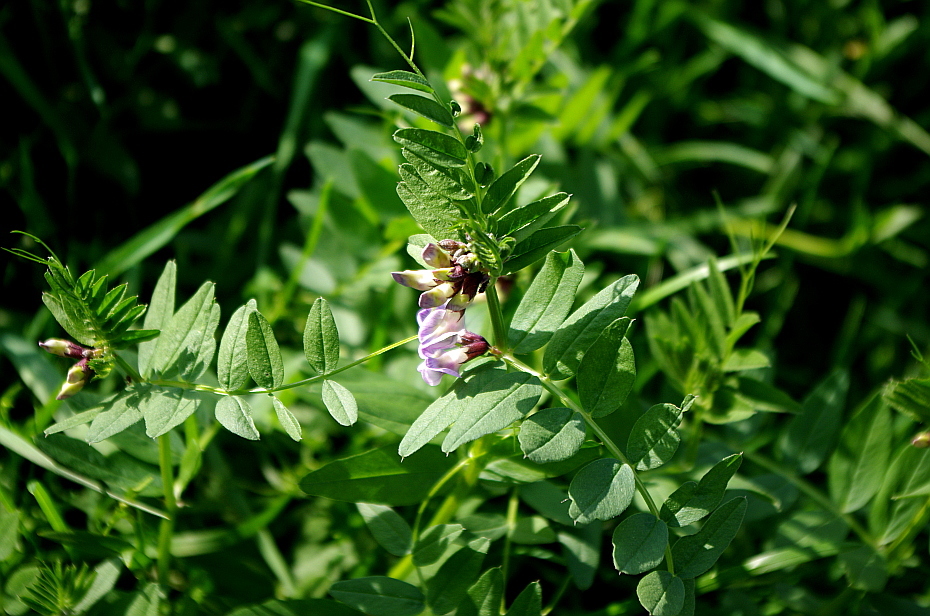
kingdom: Plantae
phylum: Tracheophyta
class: Magnoliopsida
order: Fabales
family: Fabaceae
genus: Vicia
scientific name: Vicia sepium
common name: Bush vetch
